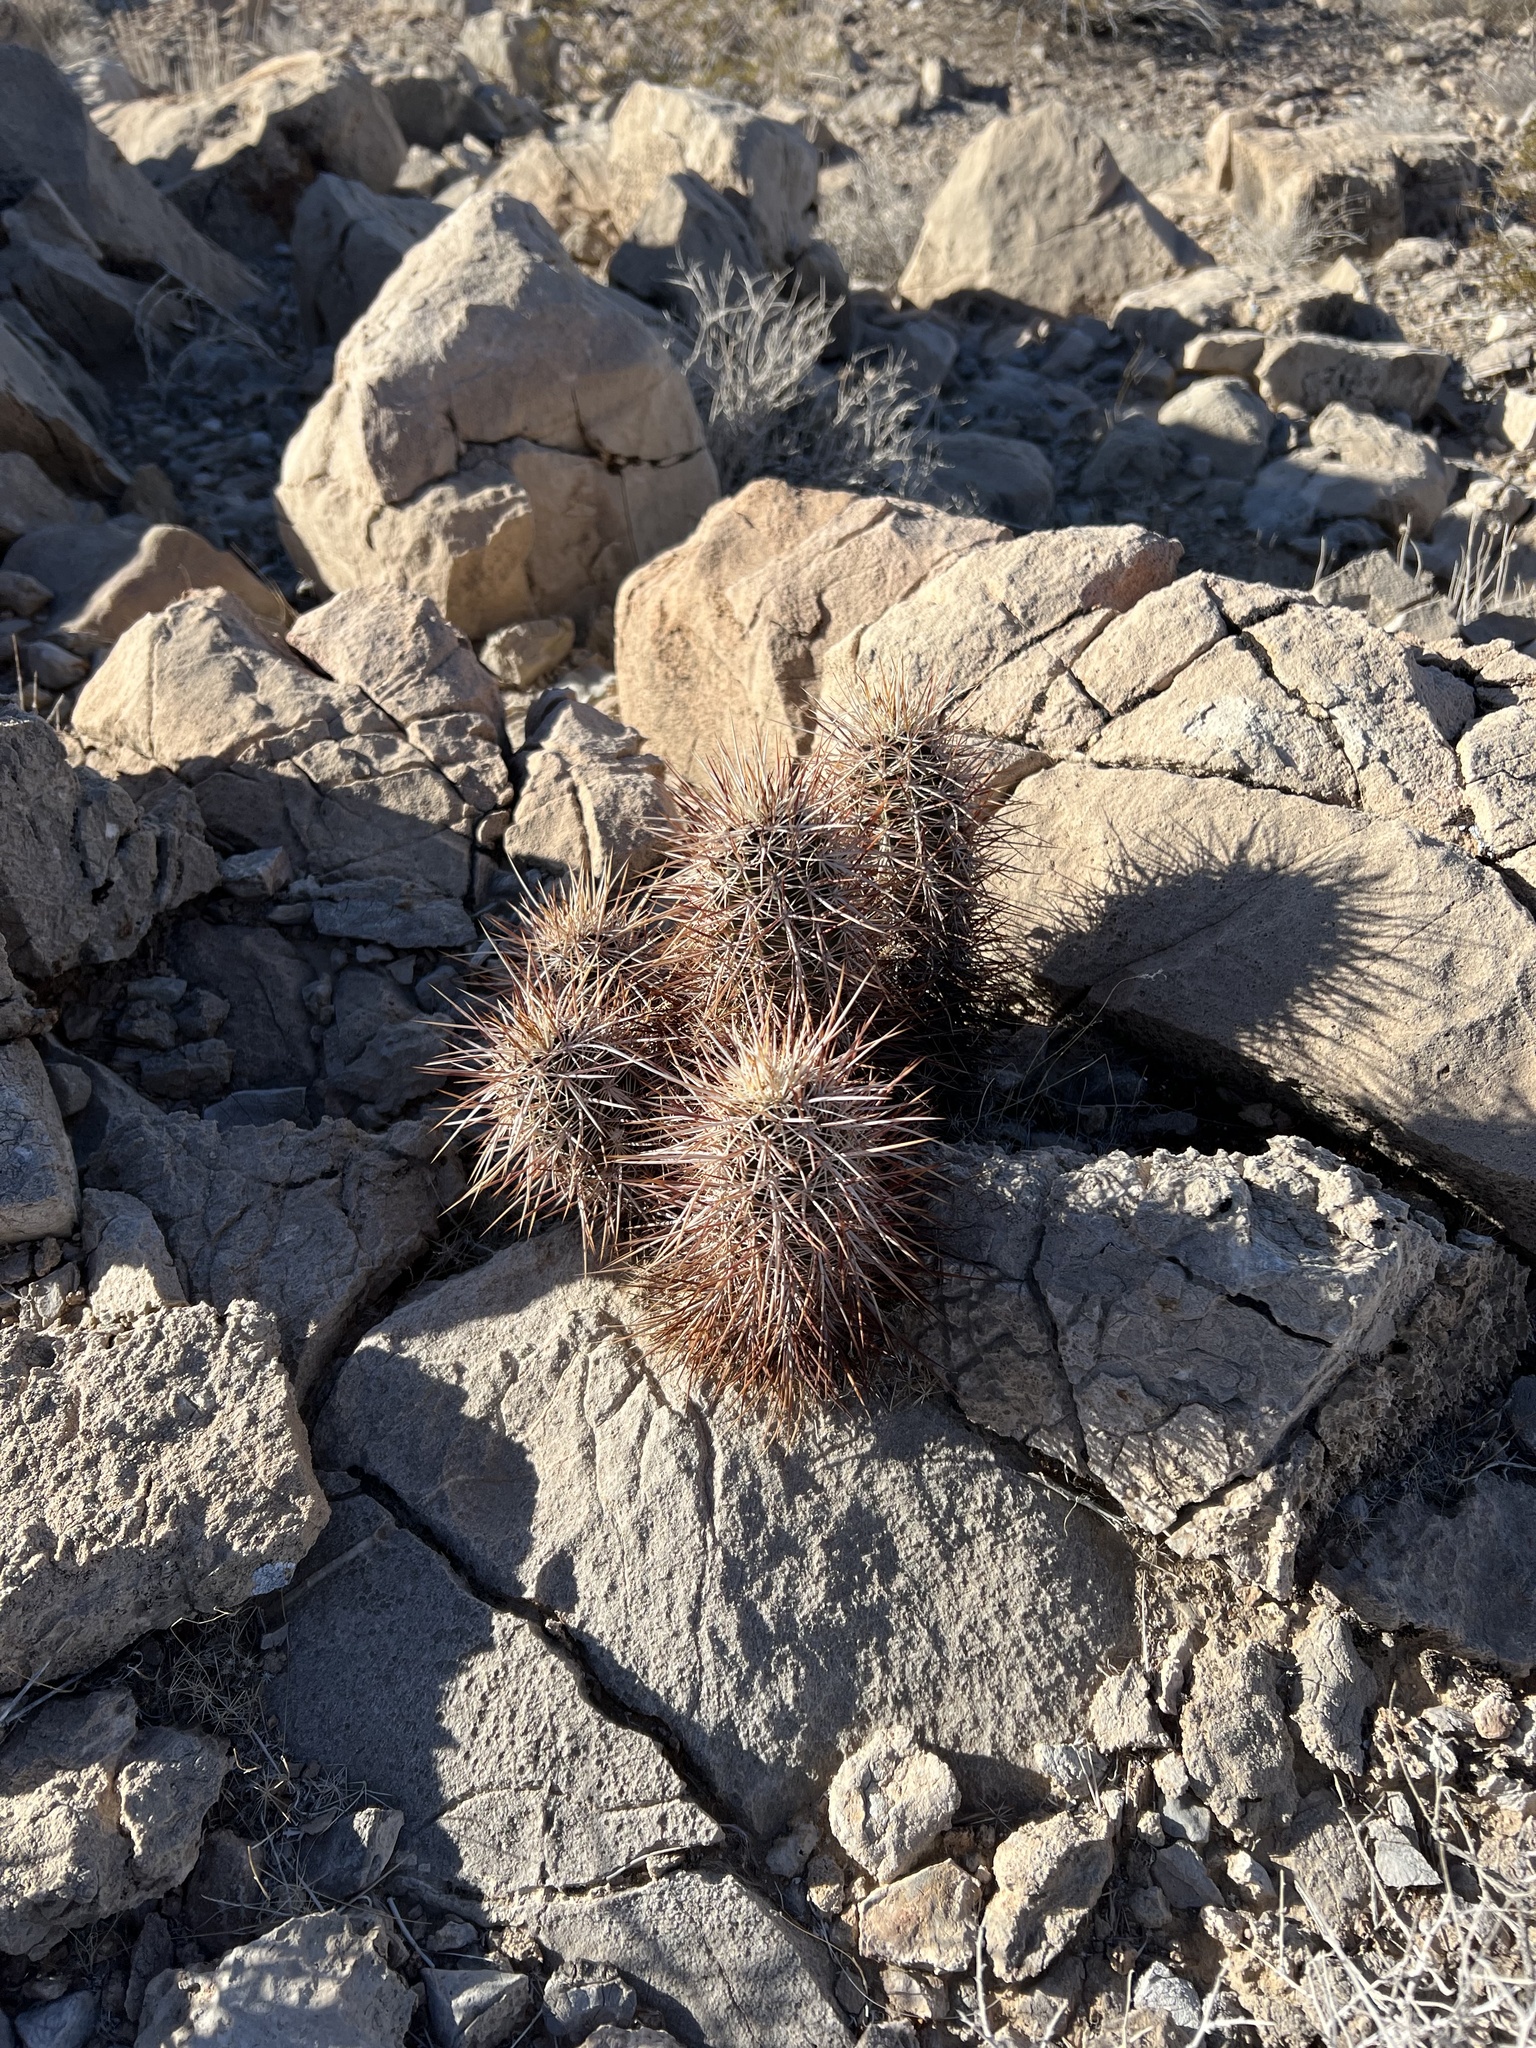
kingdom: Plantae
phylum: Tracheophyta
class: Magnoliopsida
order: Caryophyllales
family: Cactaceae
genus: Echinocereus
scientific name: Echinocereus engelmannii
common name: Engelmann's hedgehog cactus
